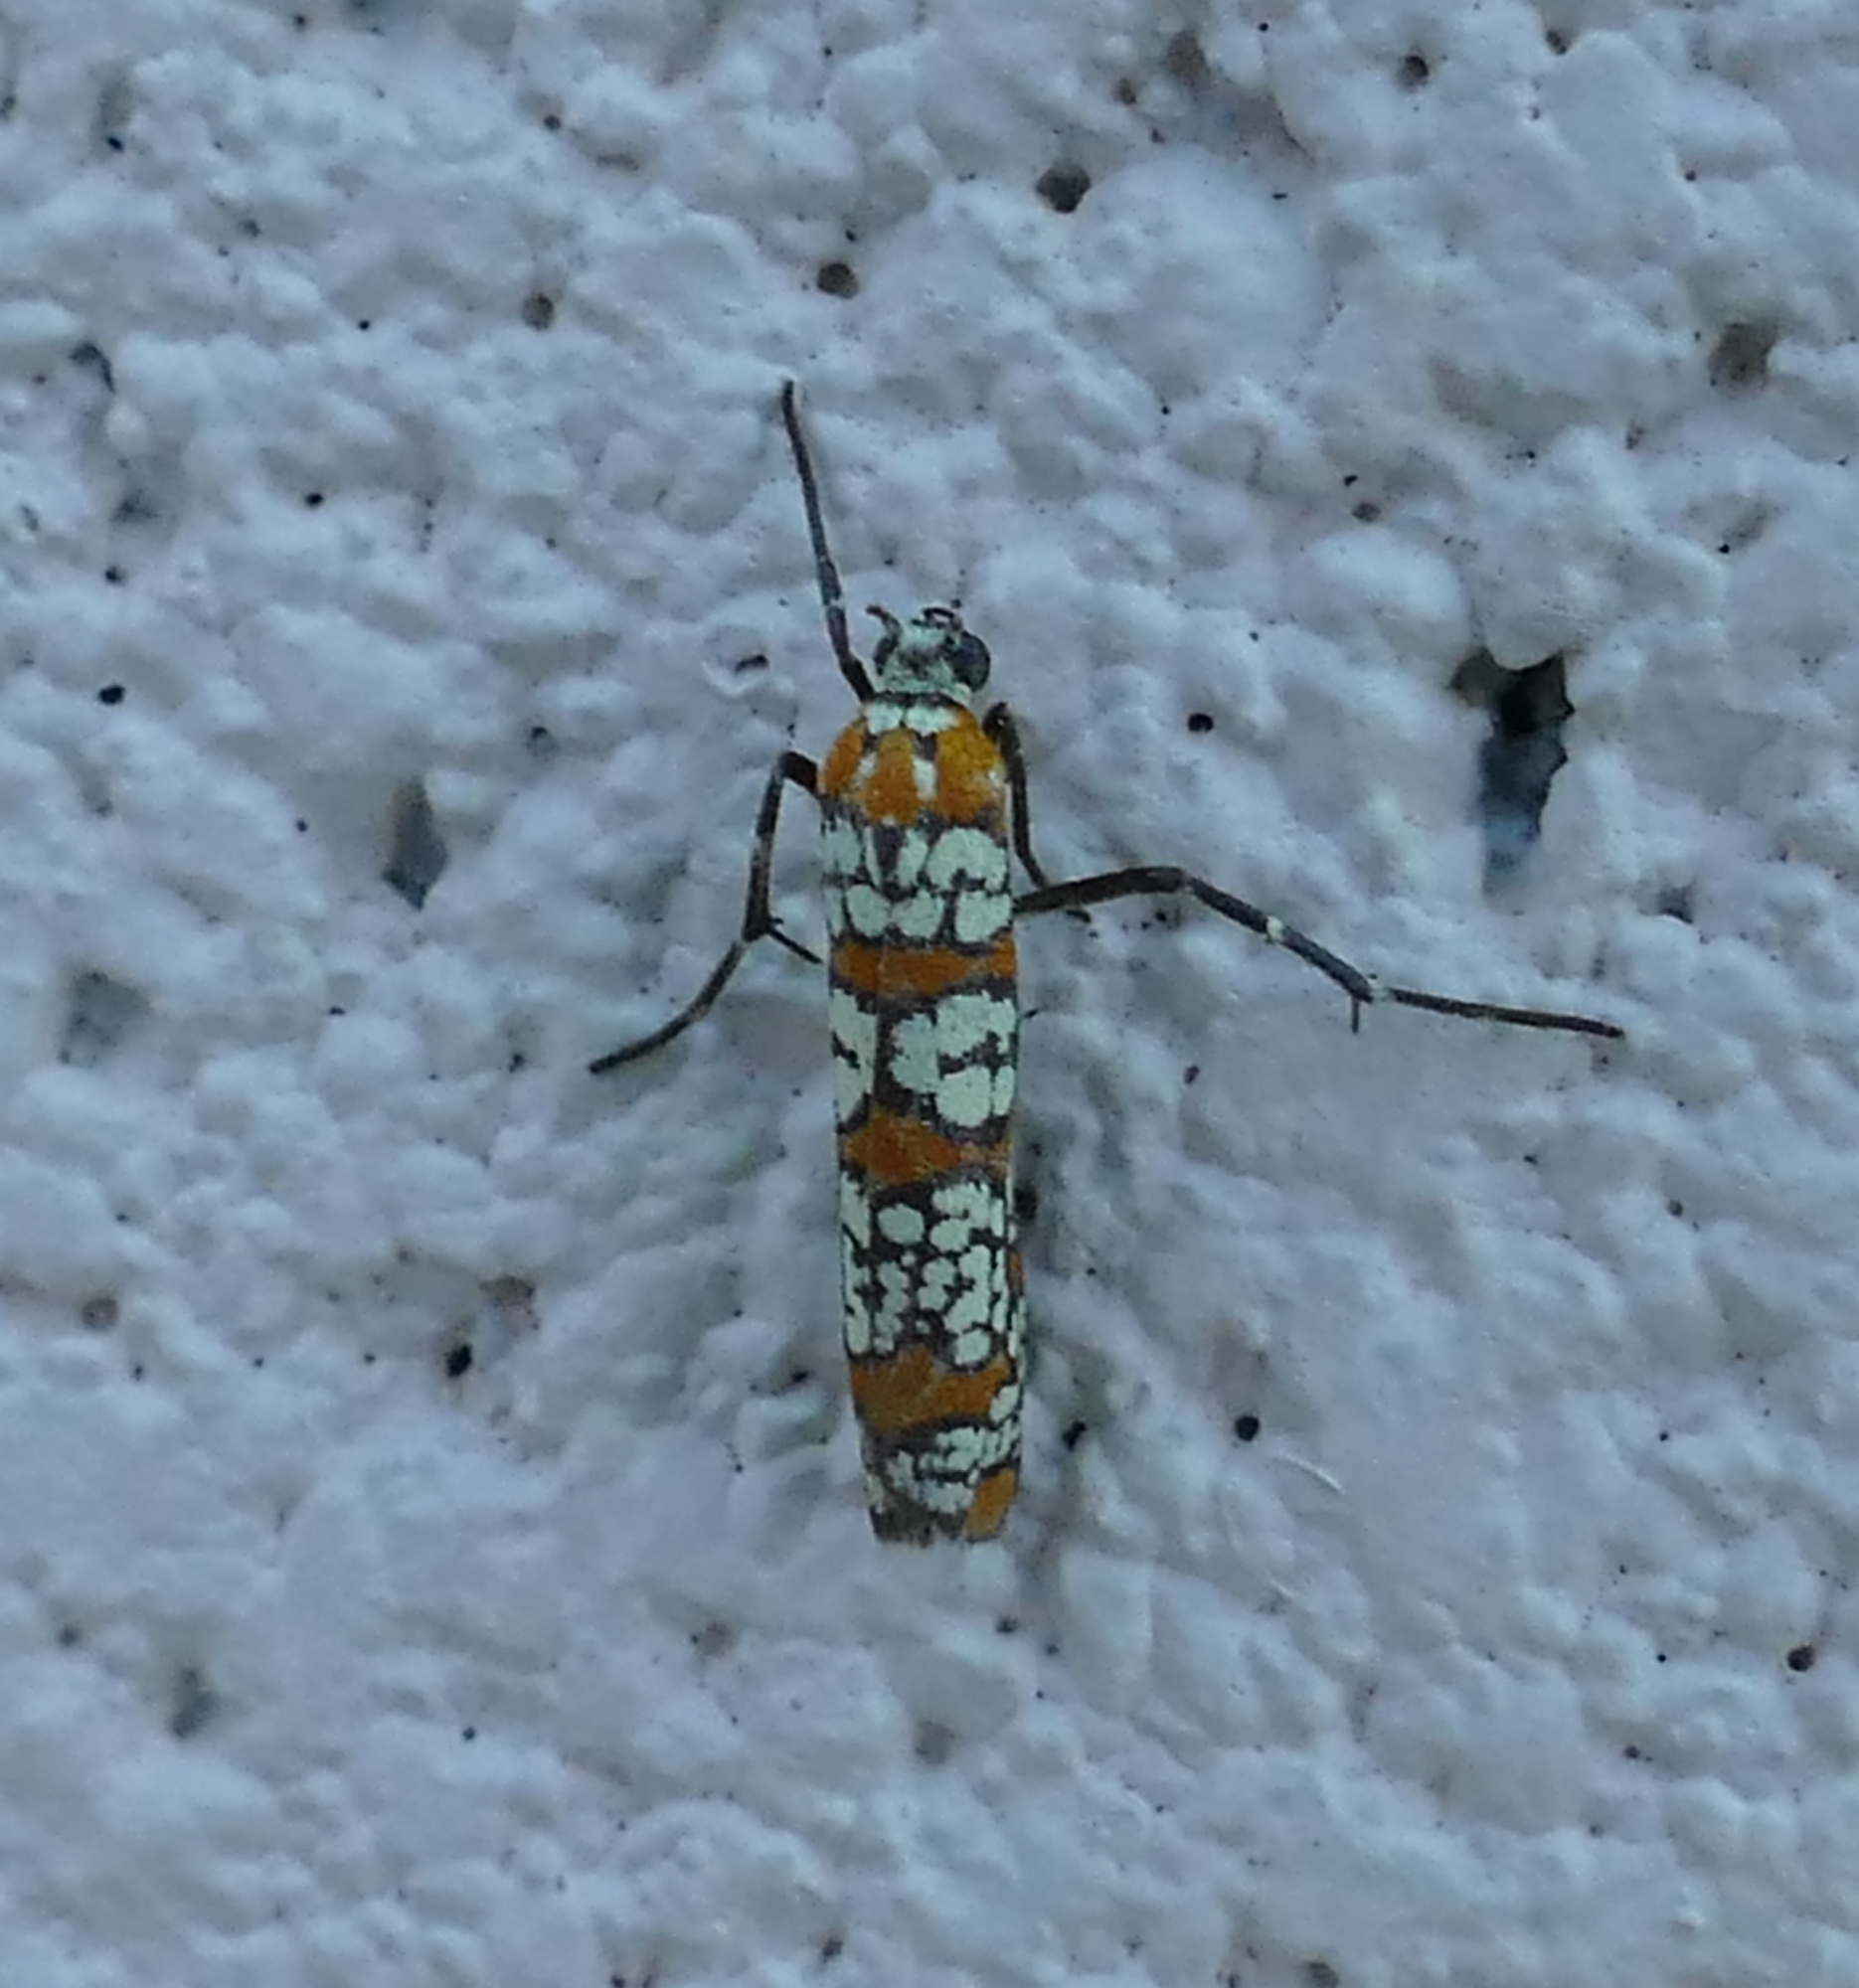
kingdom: Animalia
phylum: Arthropoda
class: Insecta
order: Lepidoptera
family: Attevidae
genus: Atteva
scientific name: Atteva punctella
